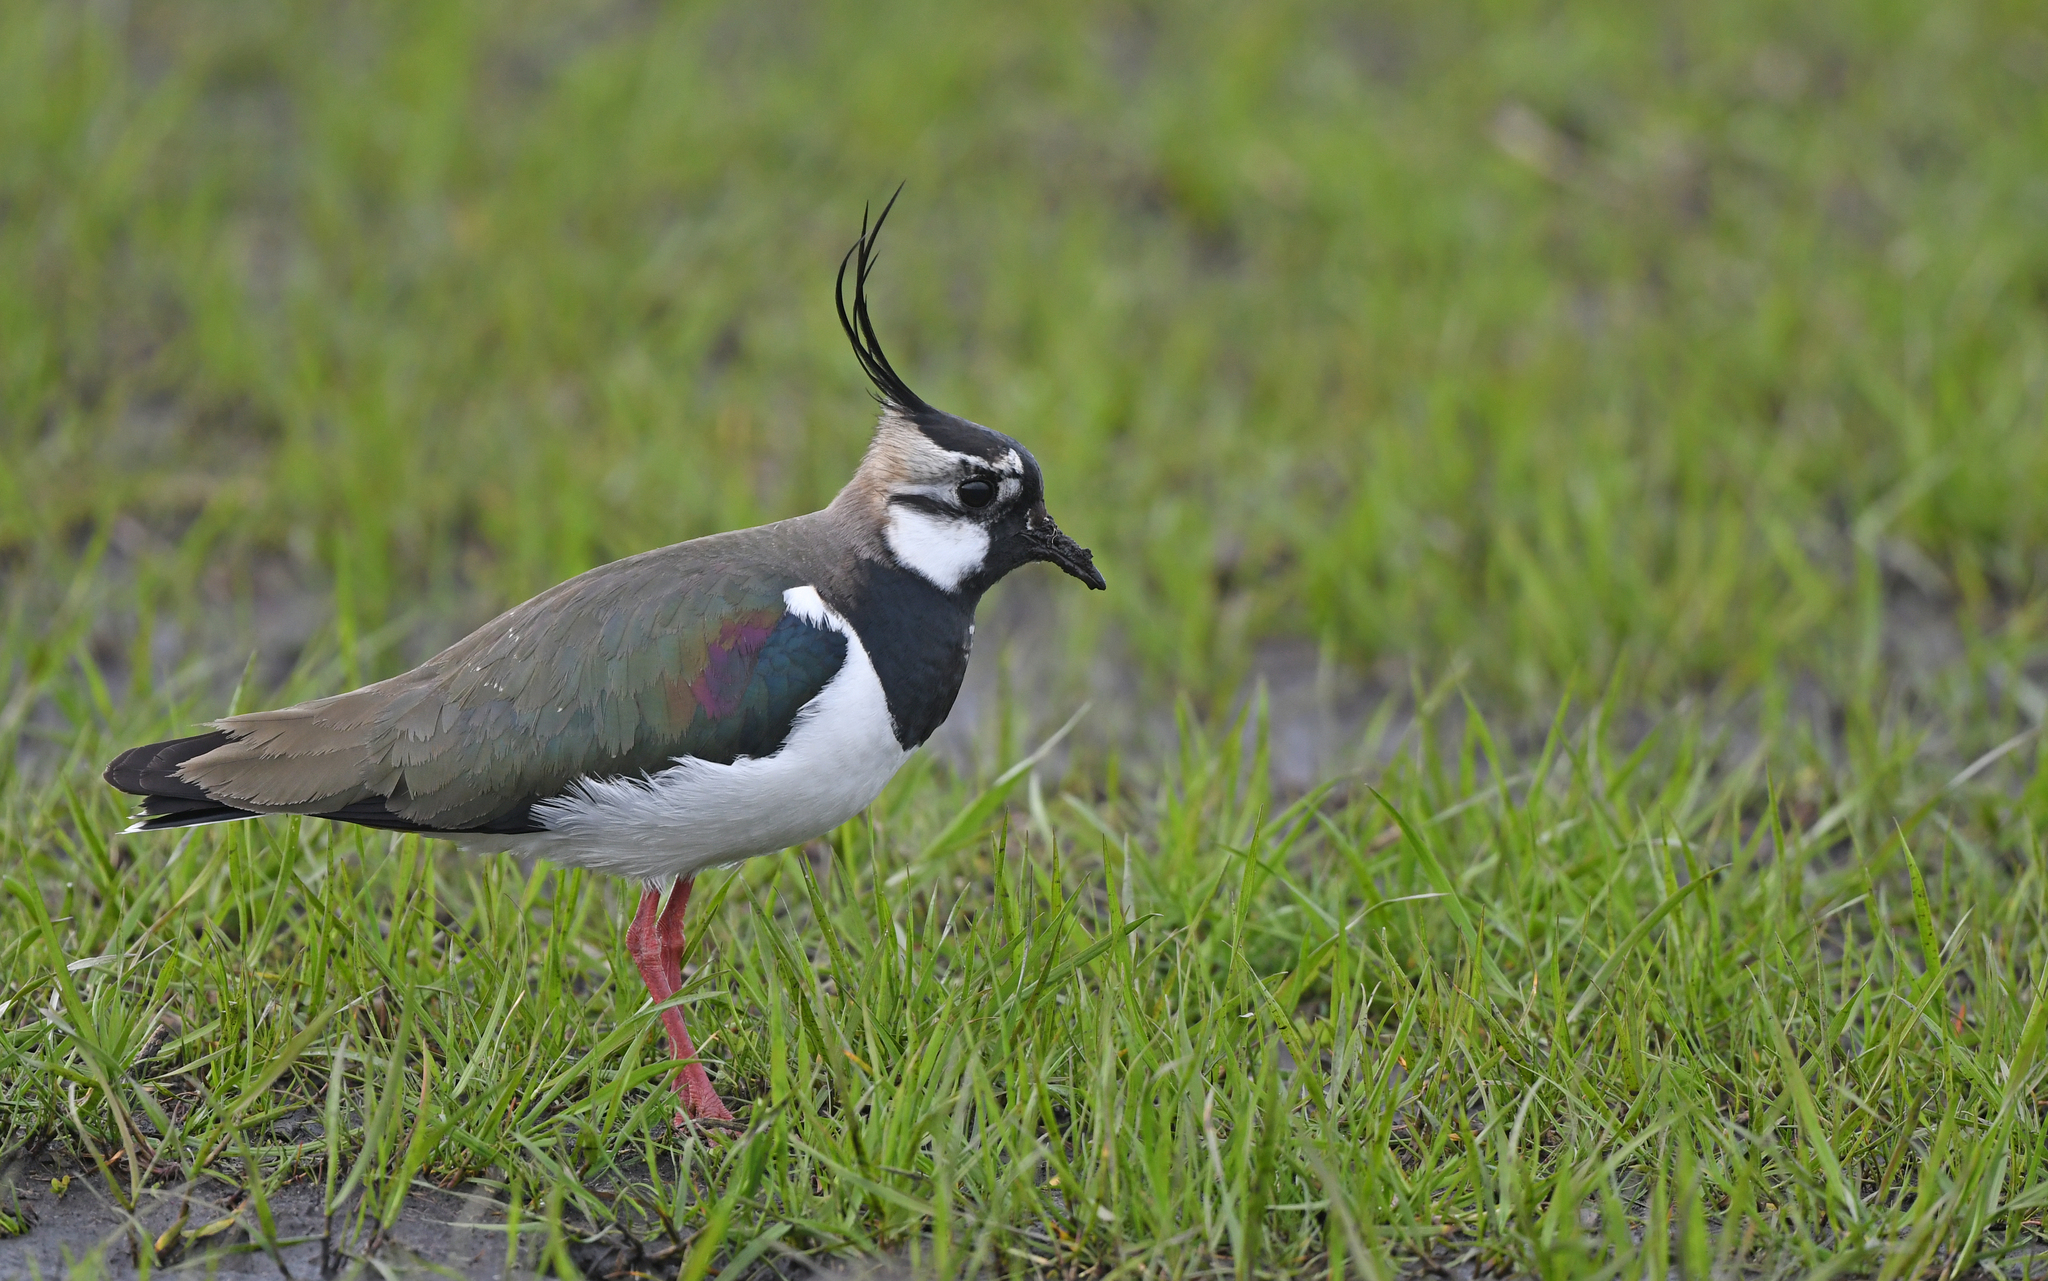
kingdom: Animalia
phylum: Chordata
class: Aves
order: Charadriiformes
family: Charadriidae
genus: Vanellus
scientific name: Vanellus vanellus
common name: Northern lapwing
